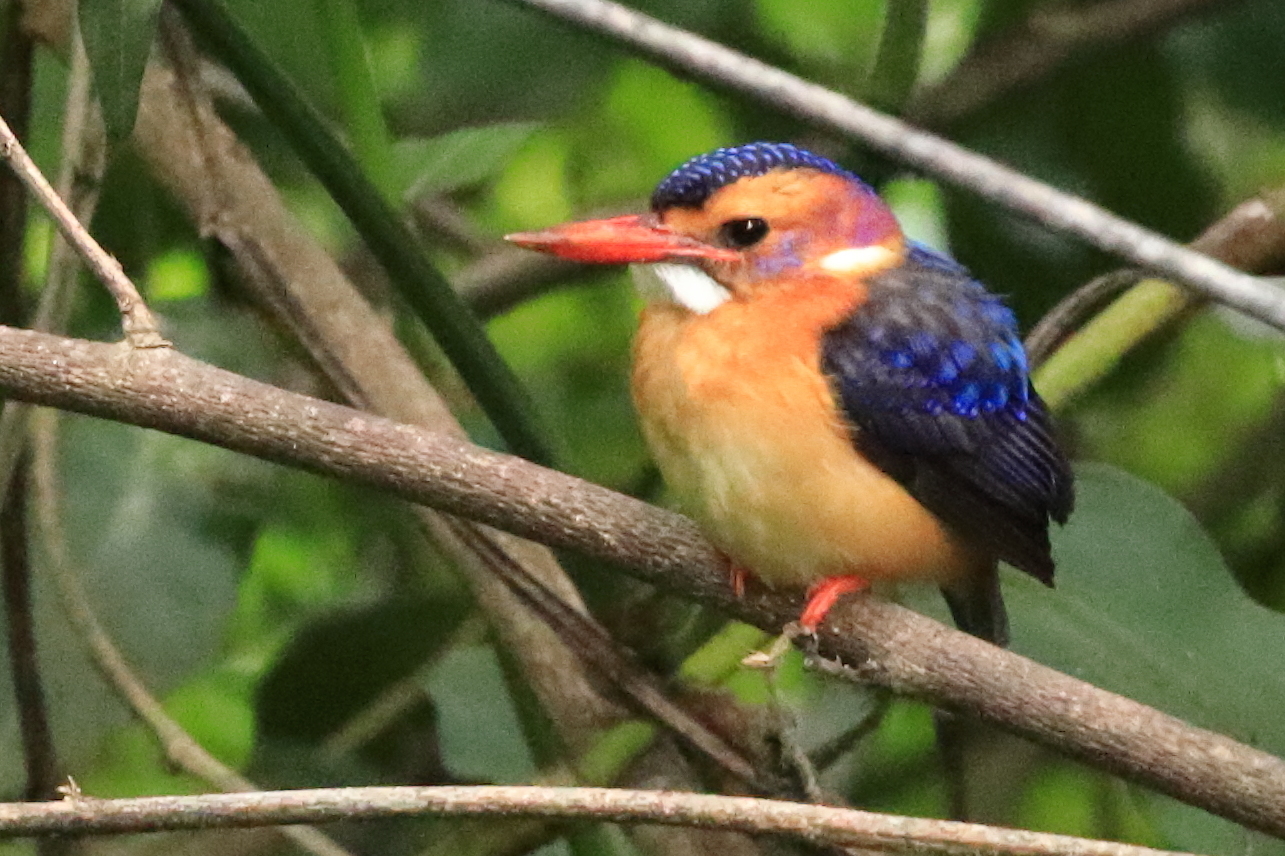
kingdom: Animalia
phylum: Chordata
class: Aves
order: Coraciiformes
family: Alcedinidae
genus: Ispidina
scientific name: Ispidina picta
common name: African pygmy-kingfisher
